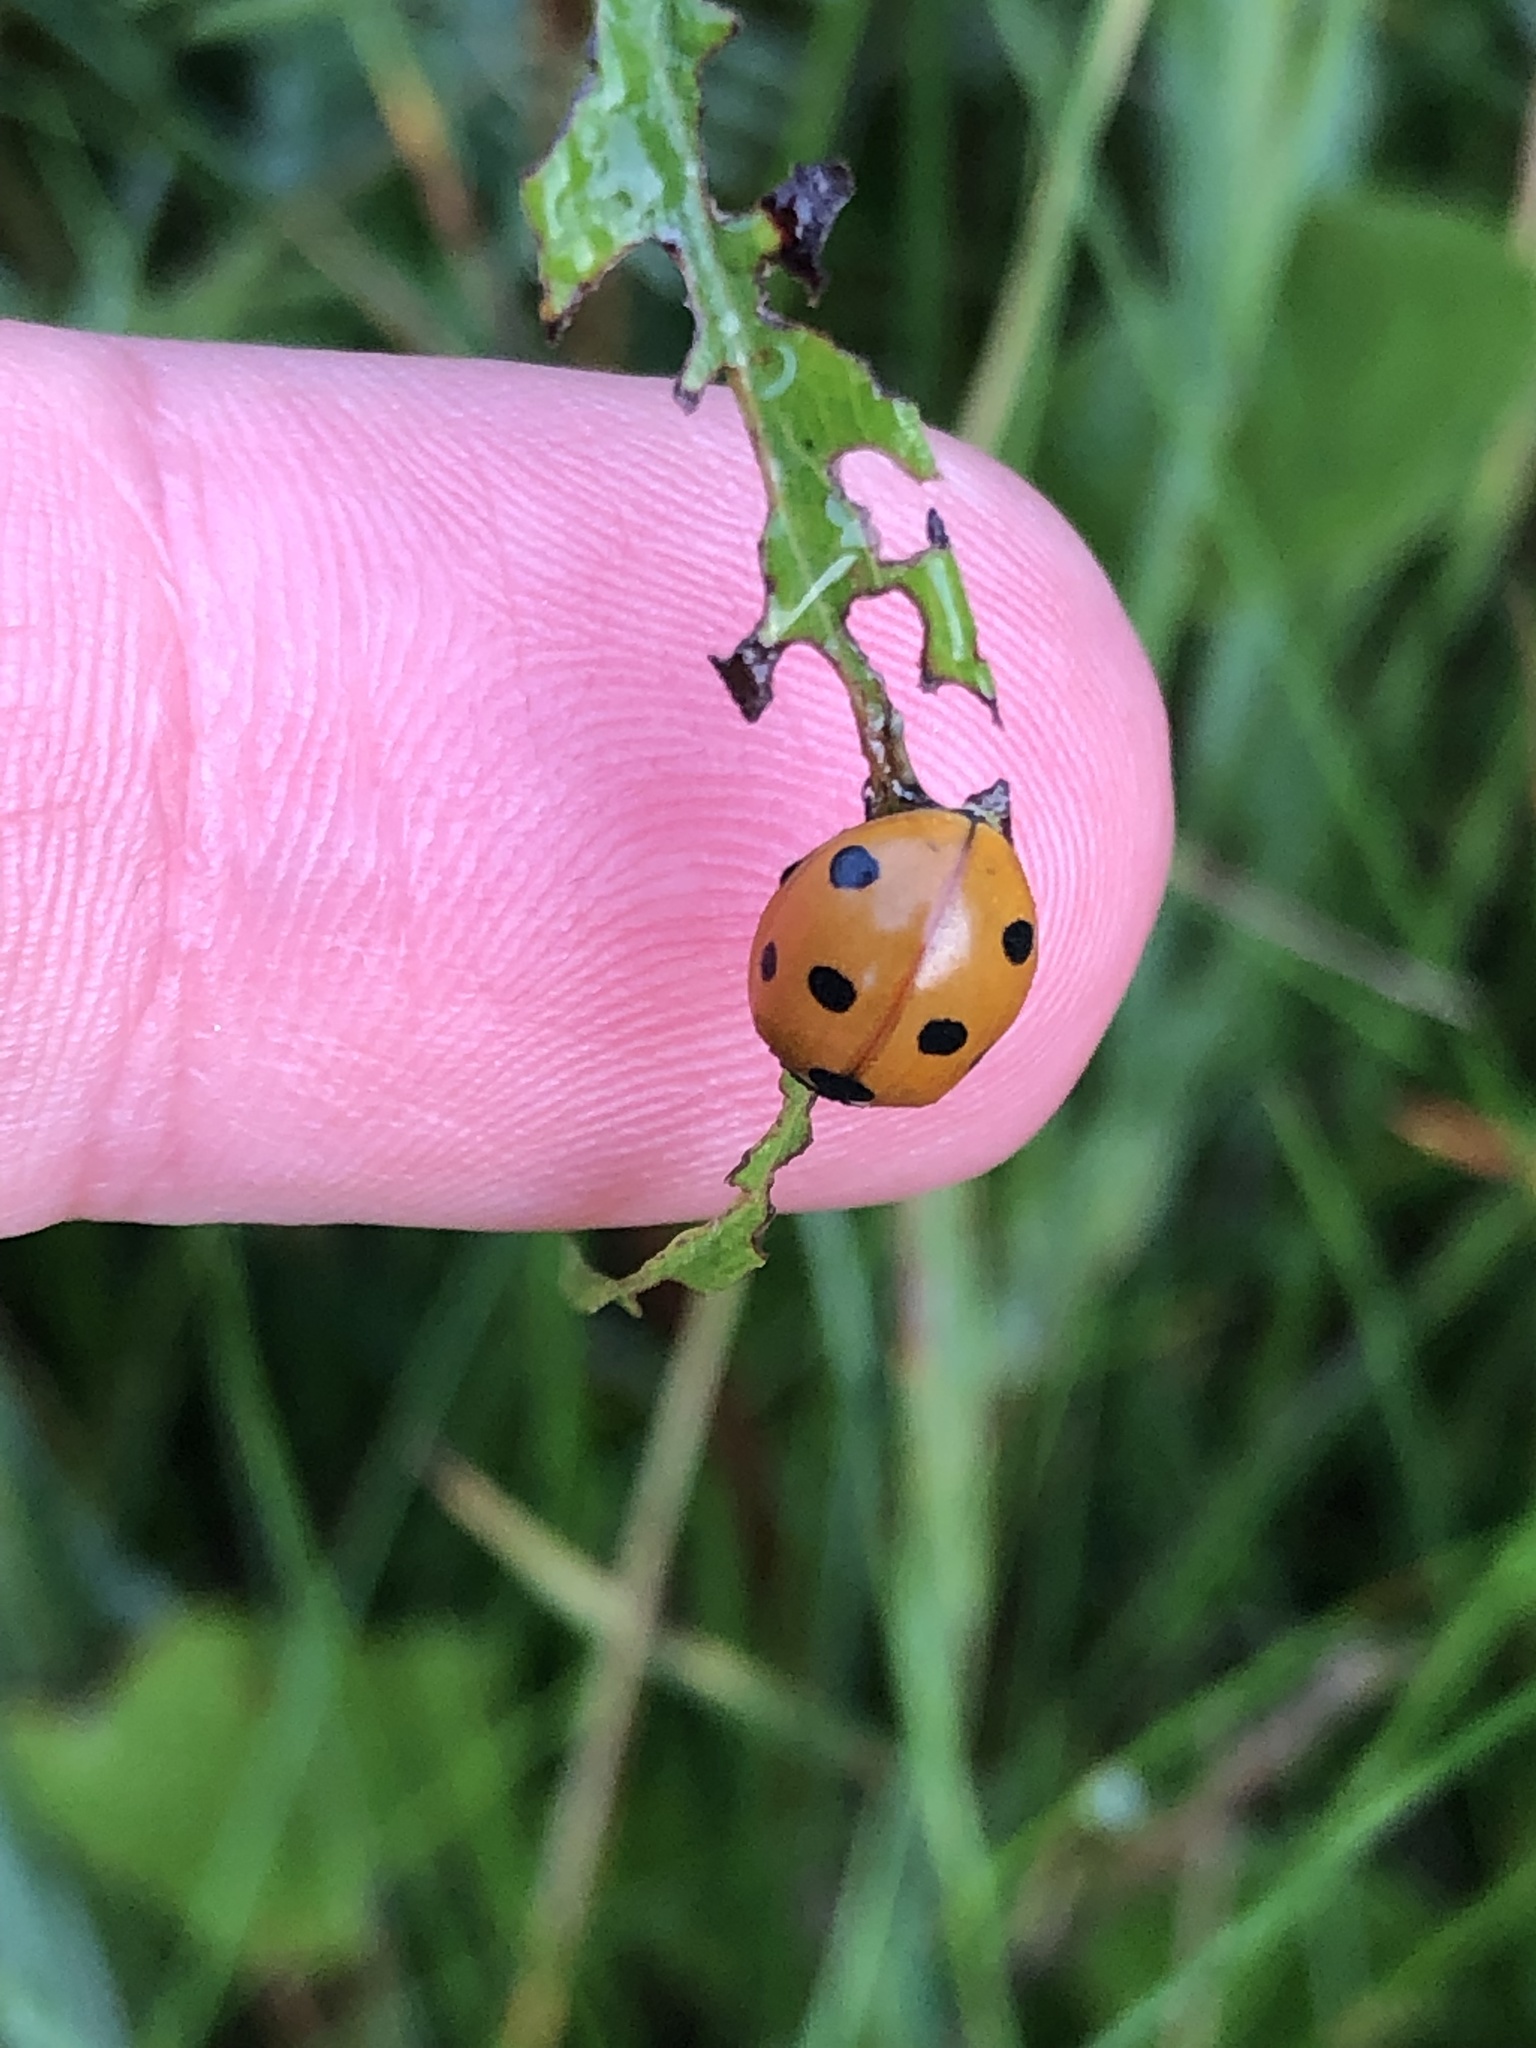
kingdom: Animalia
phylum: Arthropoda
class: Insecta
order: Coleoptera
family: Coccinellidae
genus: Coccinella
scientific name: Coccinella septempunctata
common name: Sevenspotted lady beetle
